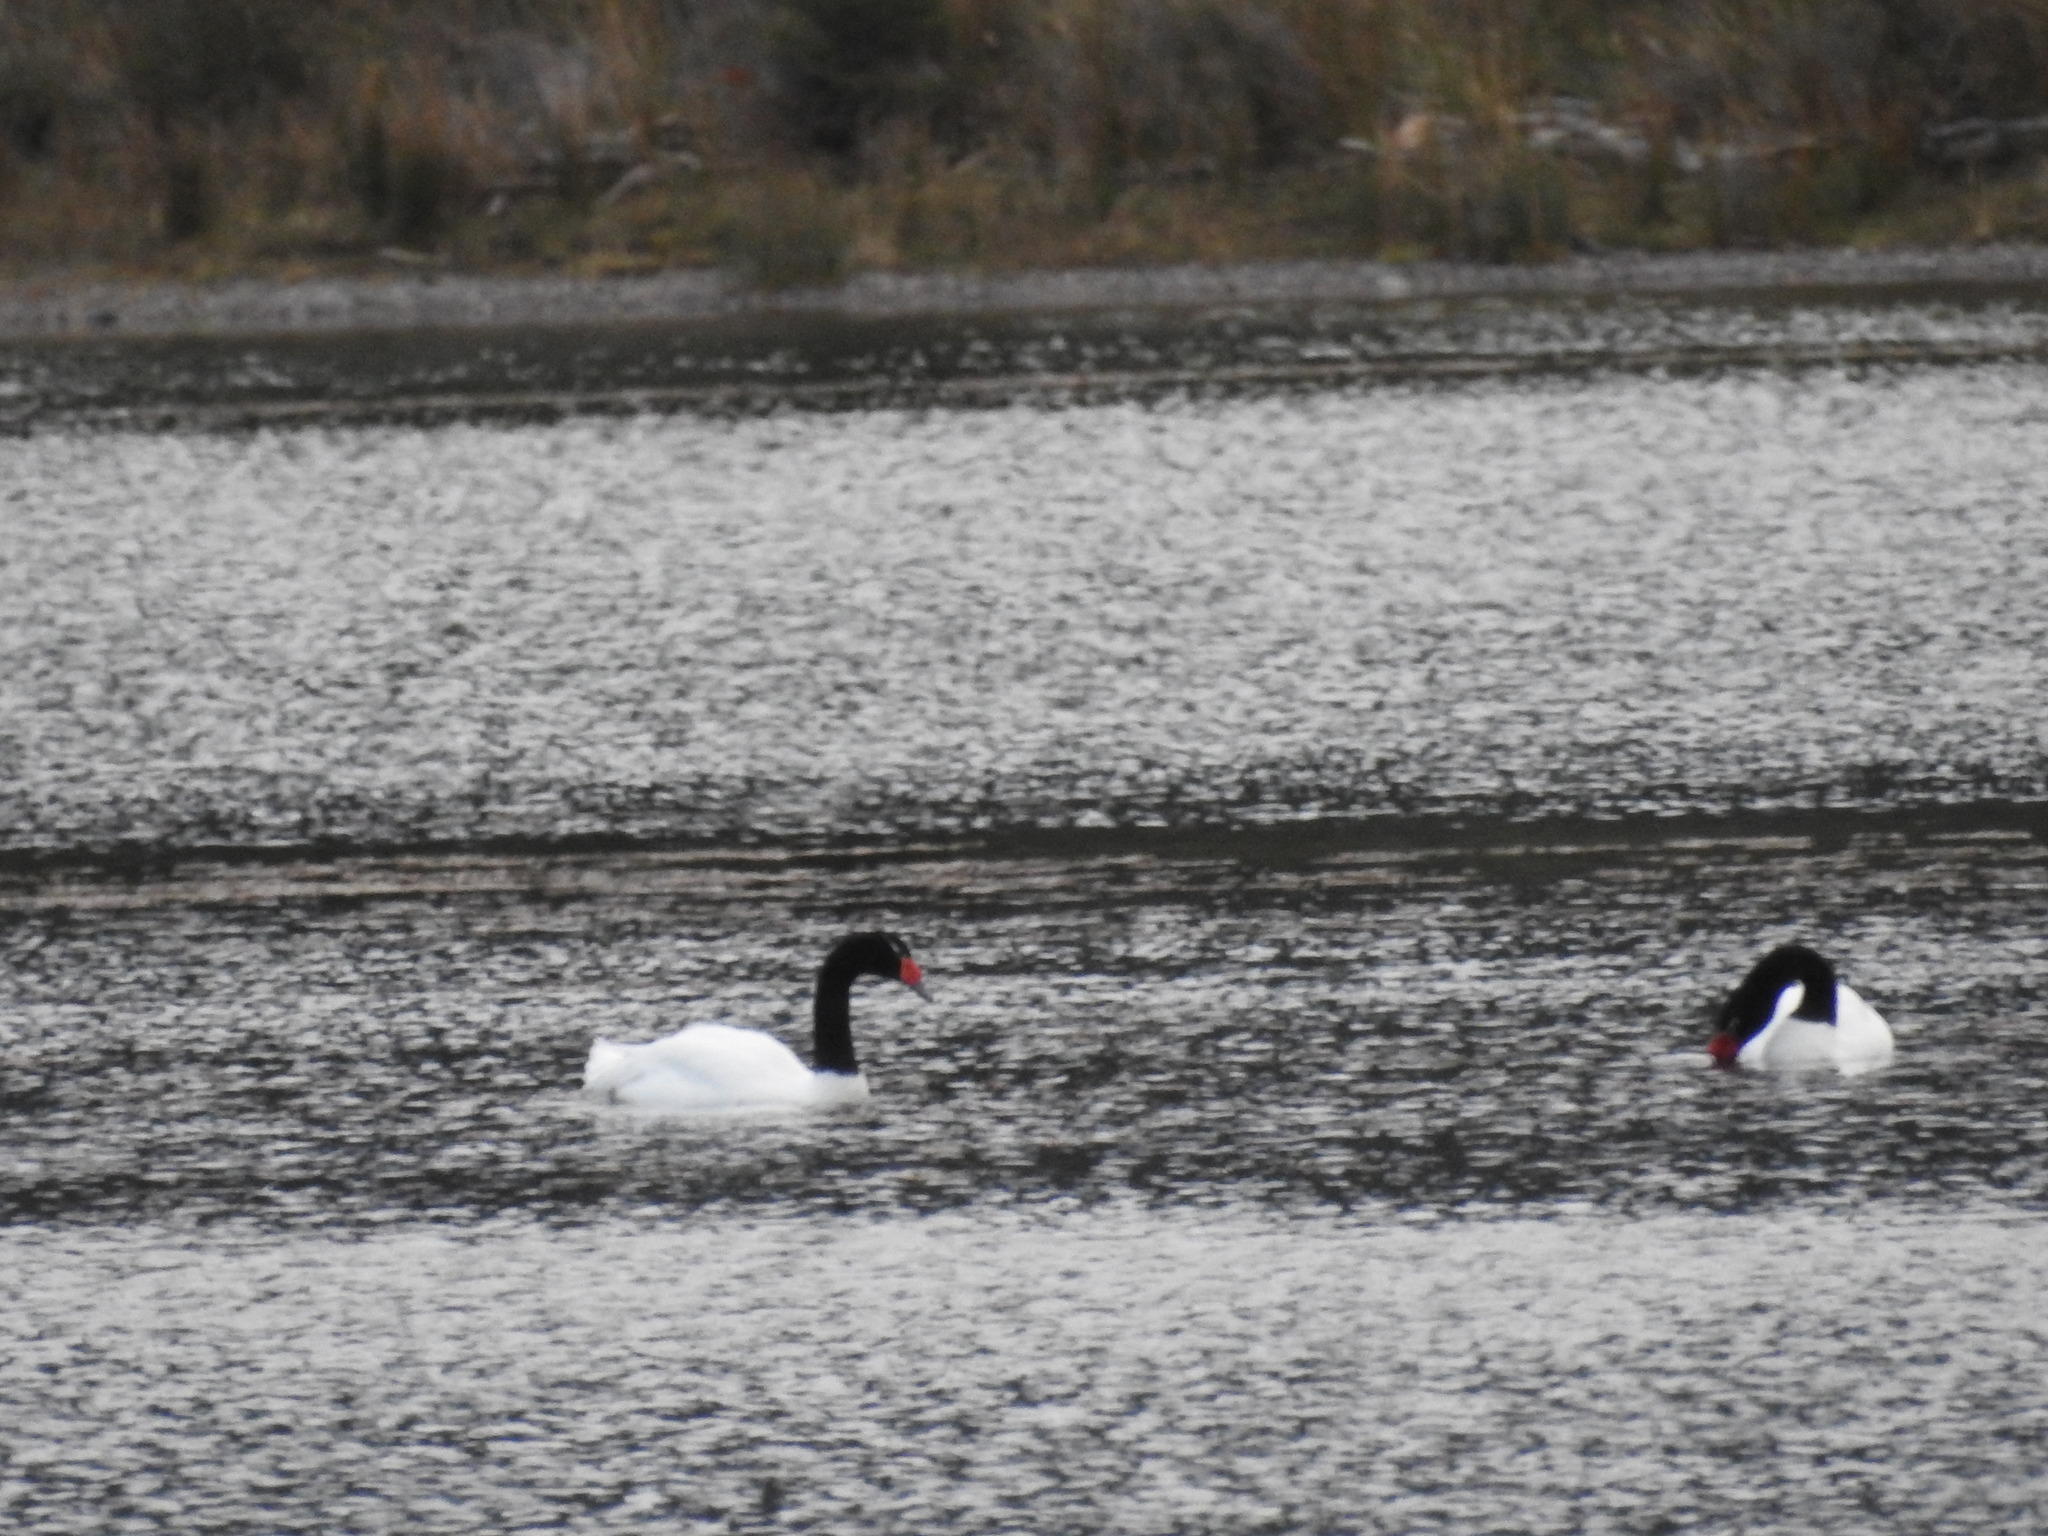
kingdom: Animalia
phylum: Chordata
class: Aves
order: Anseriformes
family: Anatidae
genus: Cygnus
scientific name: Cygnus melancoryphus
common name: Black-necked swan
